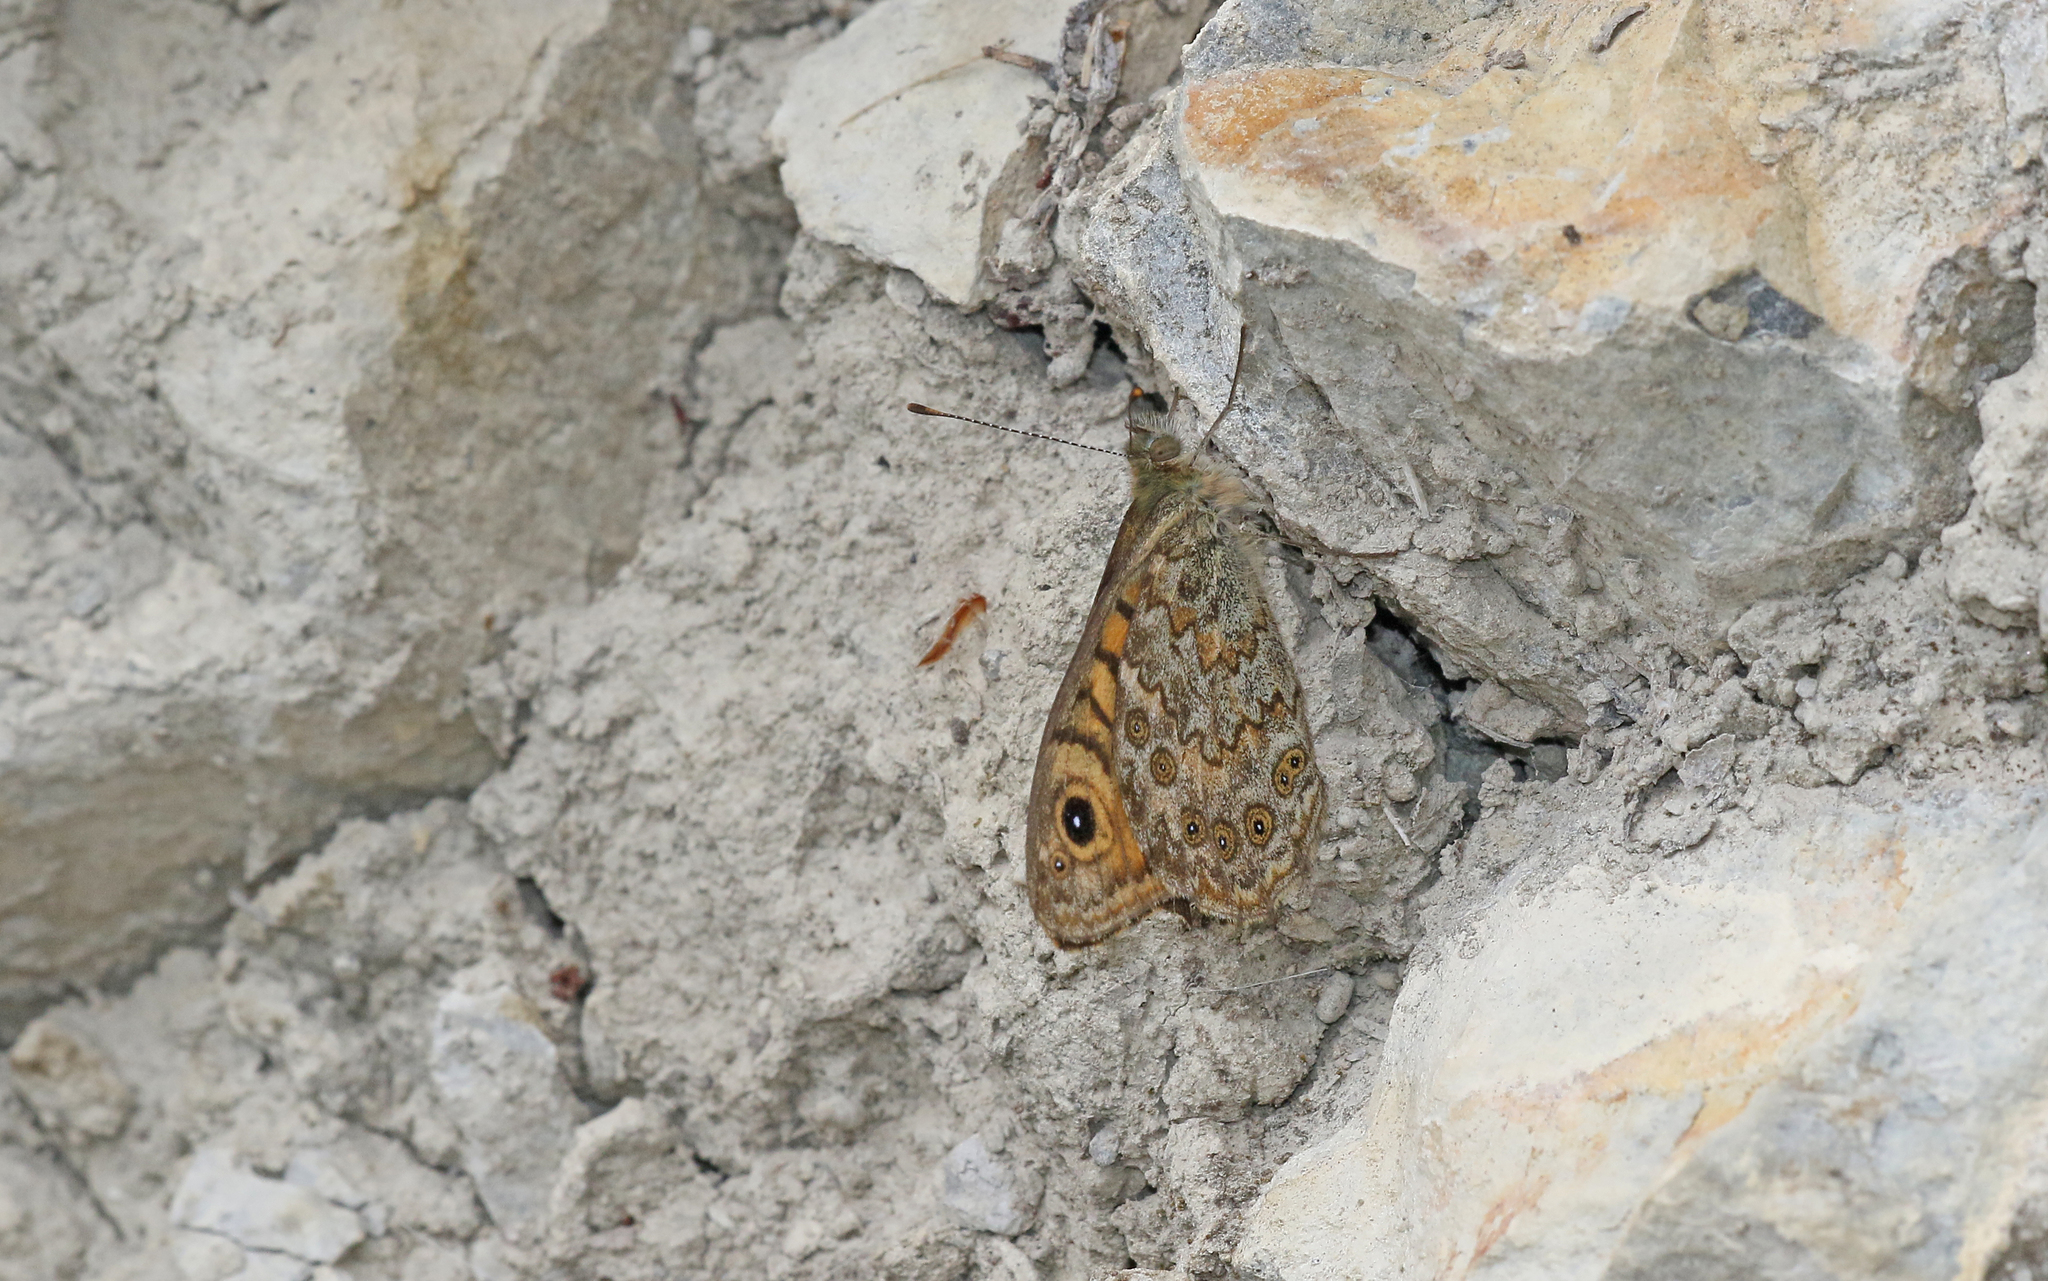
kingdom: Animalia
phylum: Arthropoda
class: Insecta
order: Lepidoptera
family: Nymphalidae
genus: Pararge
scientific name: Pararge Lasiommata megera
